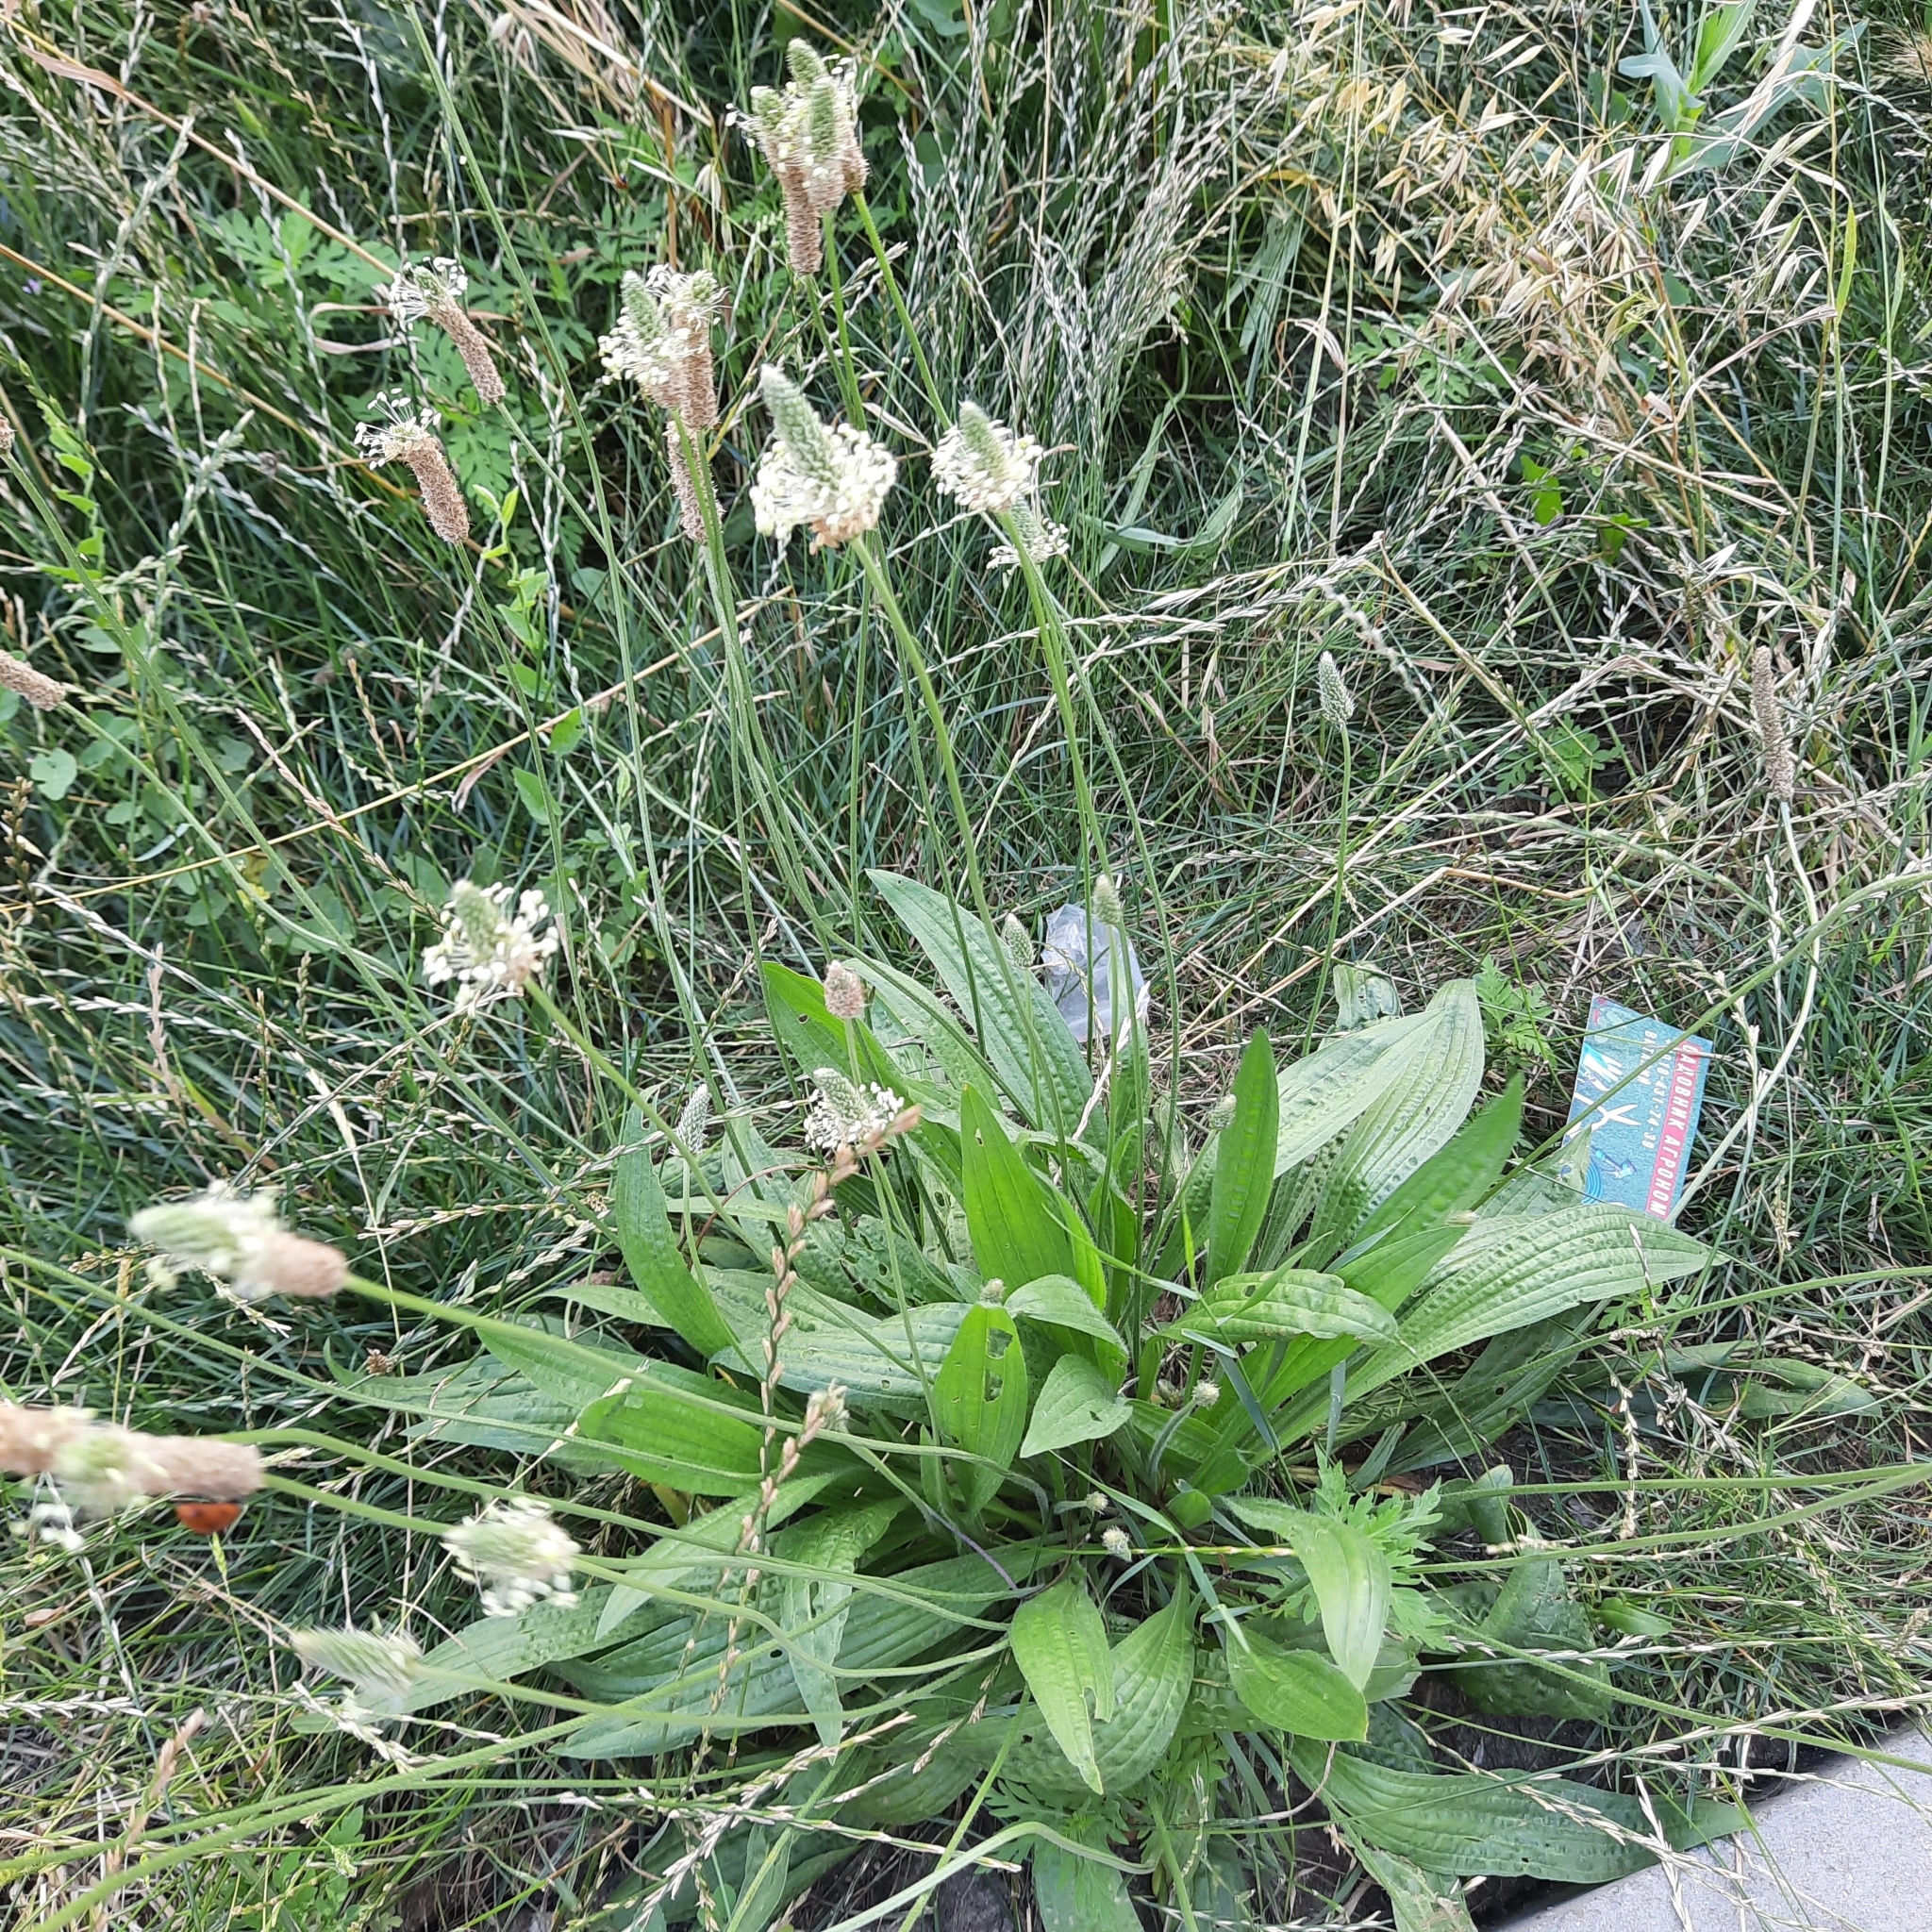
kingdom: Plantae
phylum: Tracheophyta
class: Magnoliopsida
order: Lamiales
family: Plantaginaceae
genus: Plantago
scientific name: Plantago lanceolata
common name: Ribwort plantain
